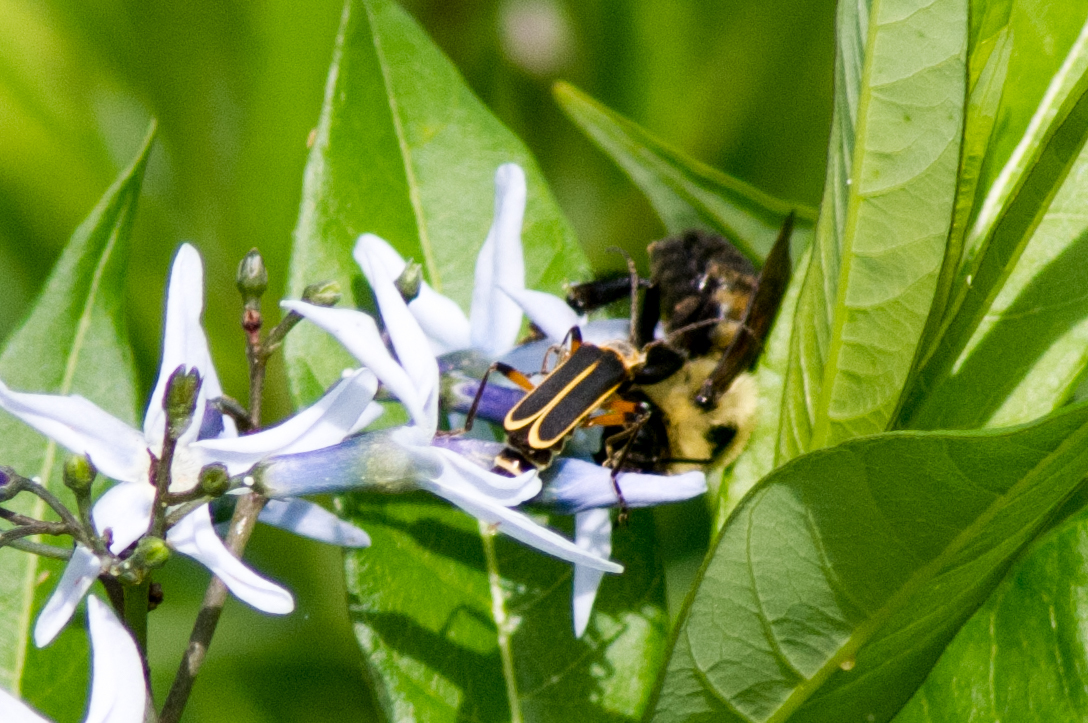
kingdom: Animalia
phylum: Arthropoda
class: Insecta
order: Coleoptera
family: Cantharidae
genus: Chauliognathus
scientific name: Chauliognathus marginatus
